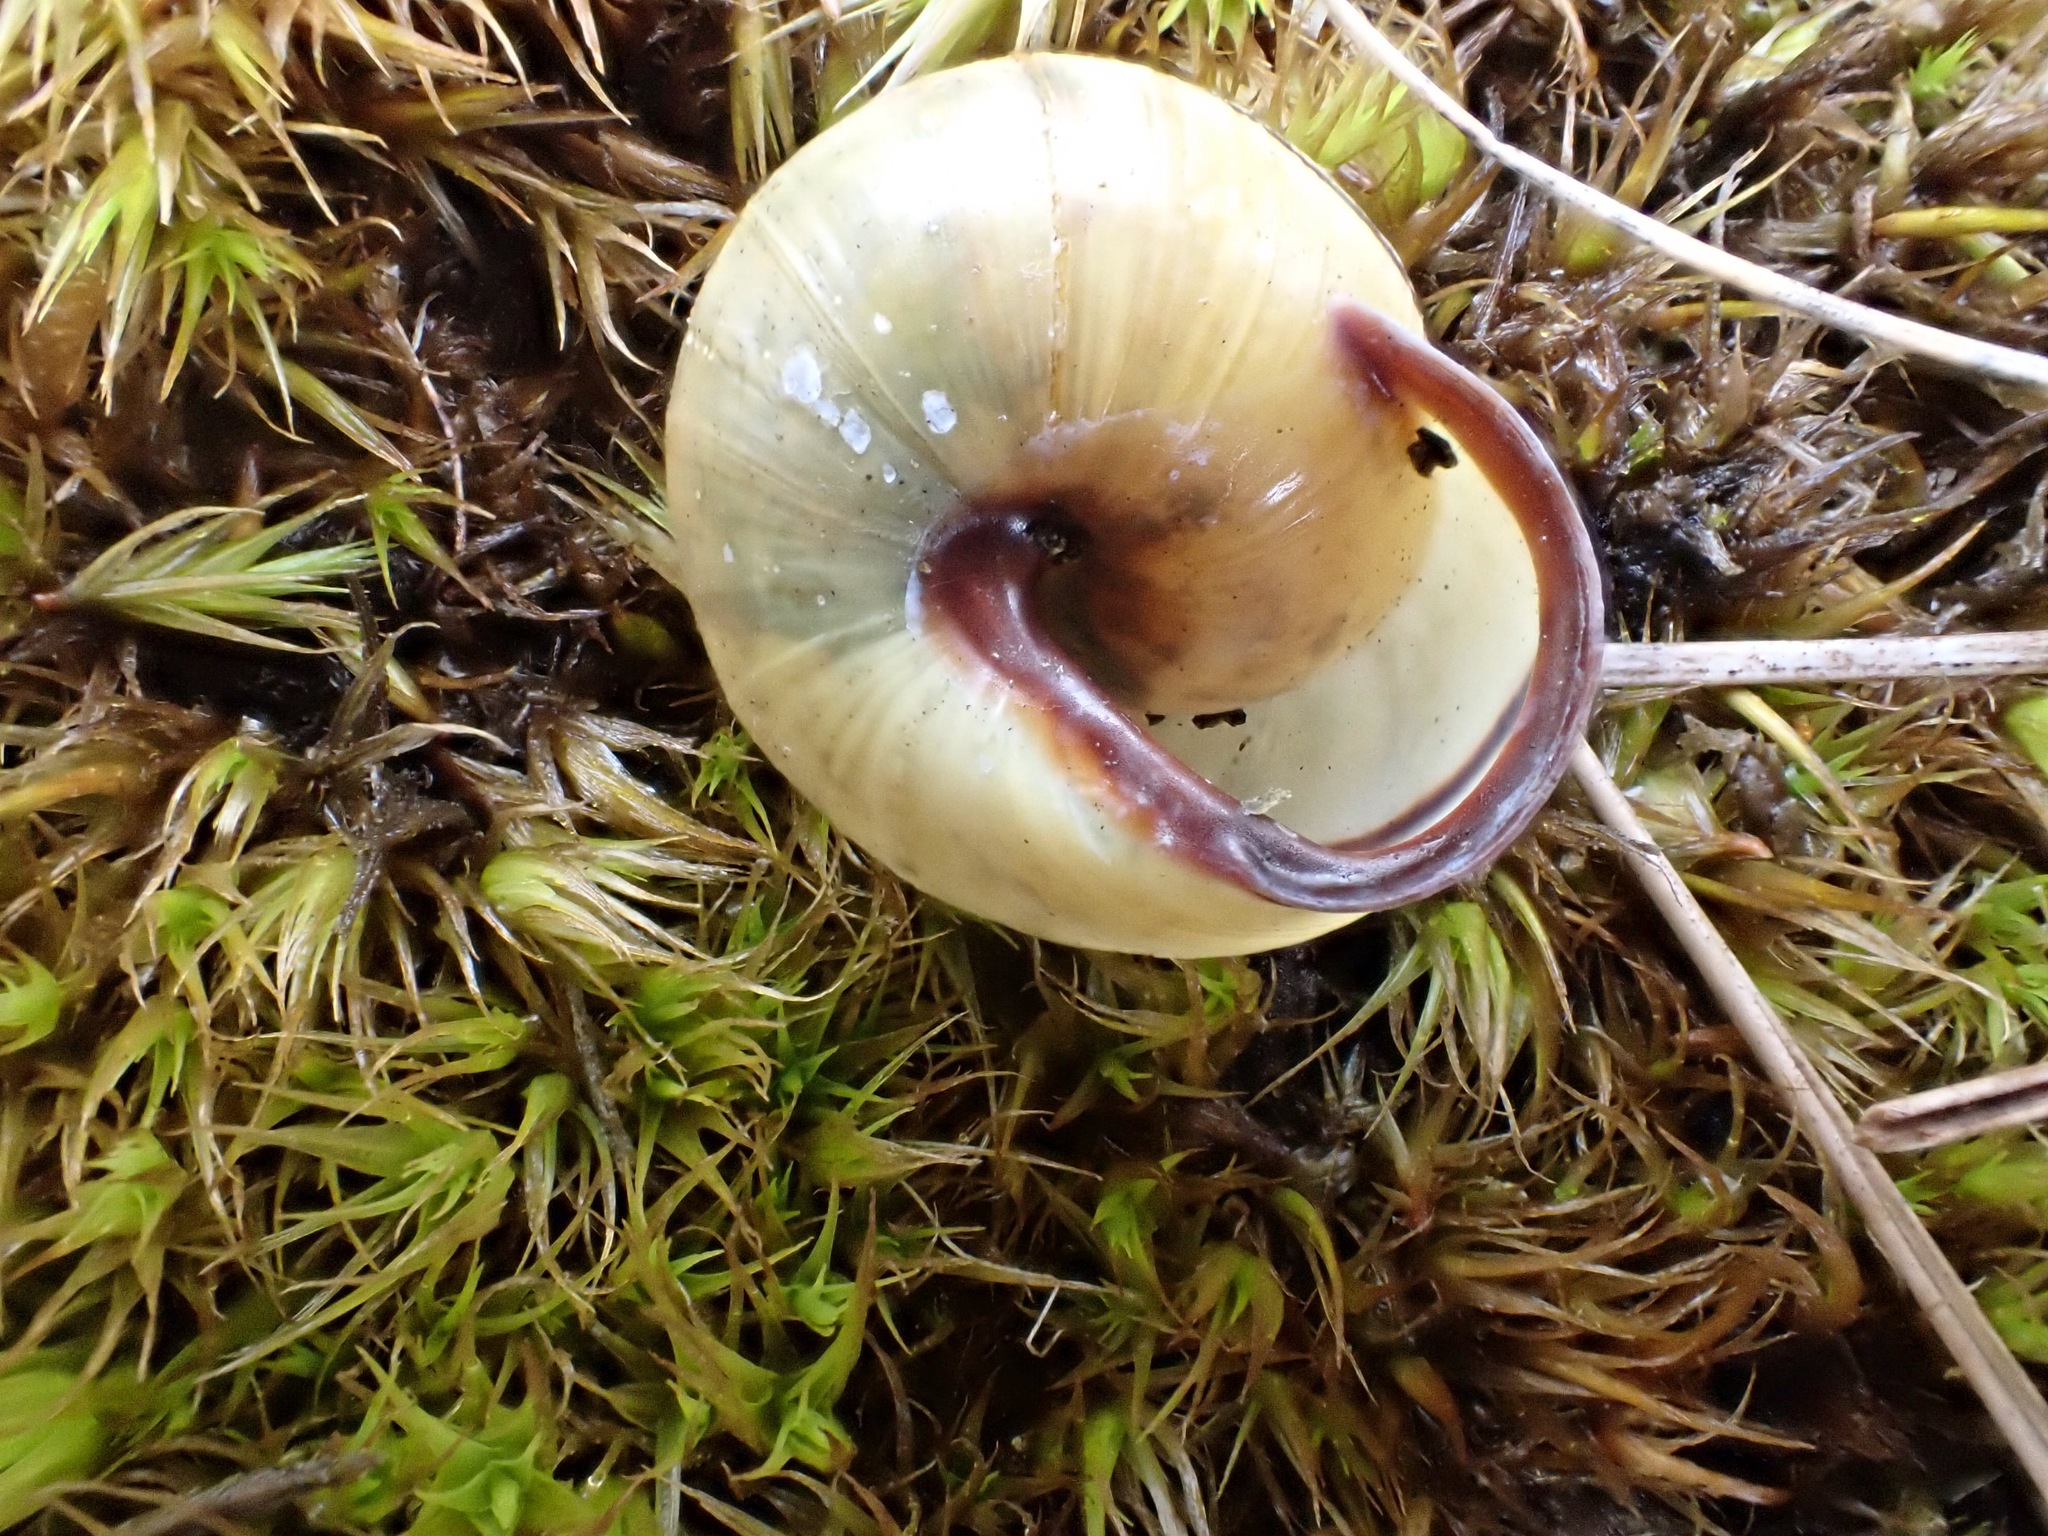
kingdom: Animalia
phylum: Mollusca
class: Gastropoda
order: Stylommatophora
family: Helicidae
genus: Cepaea
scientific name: Cepaea nemoralis
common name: Grovesnail
